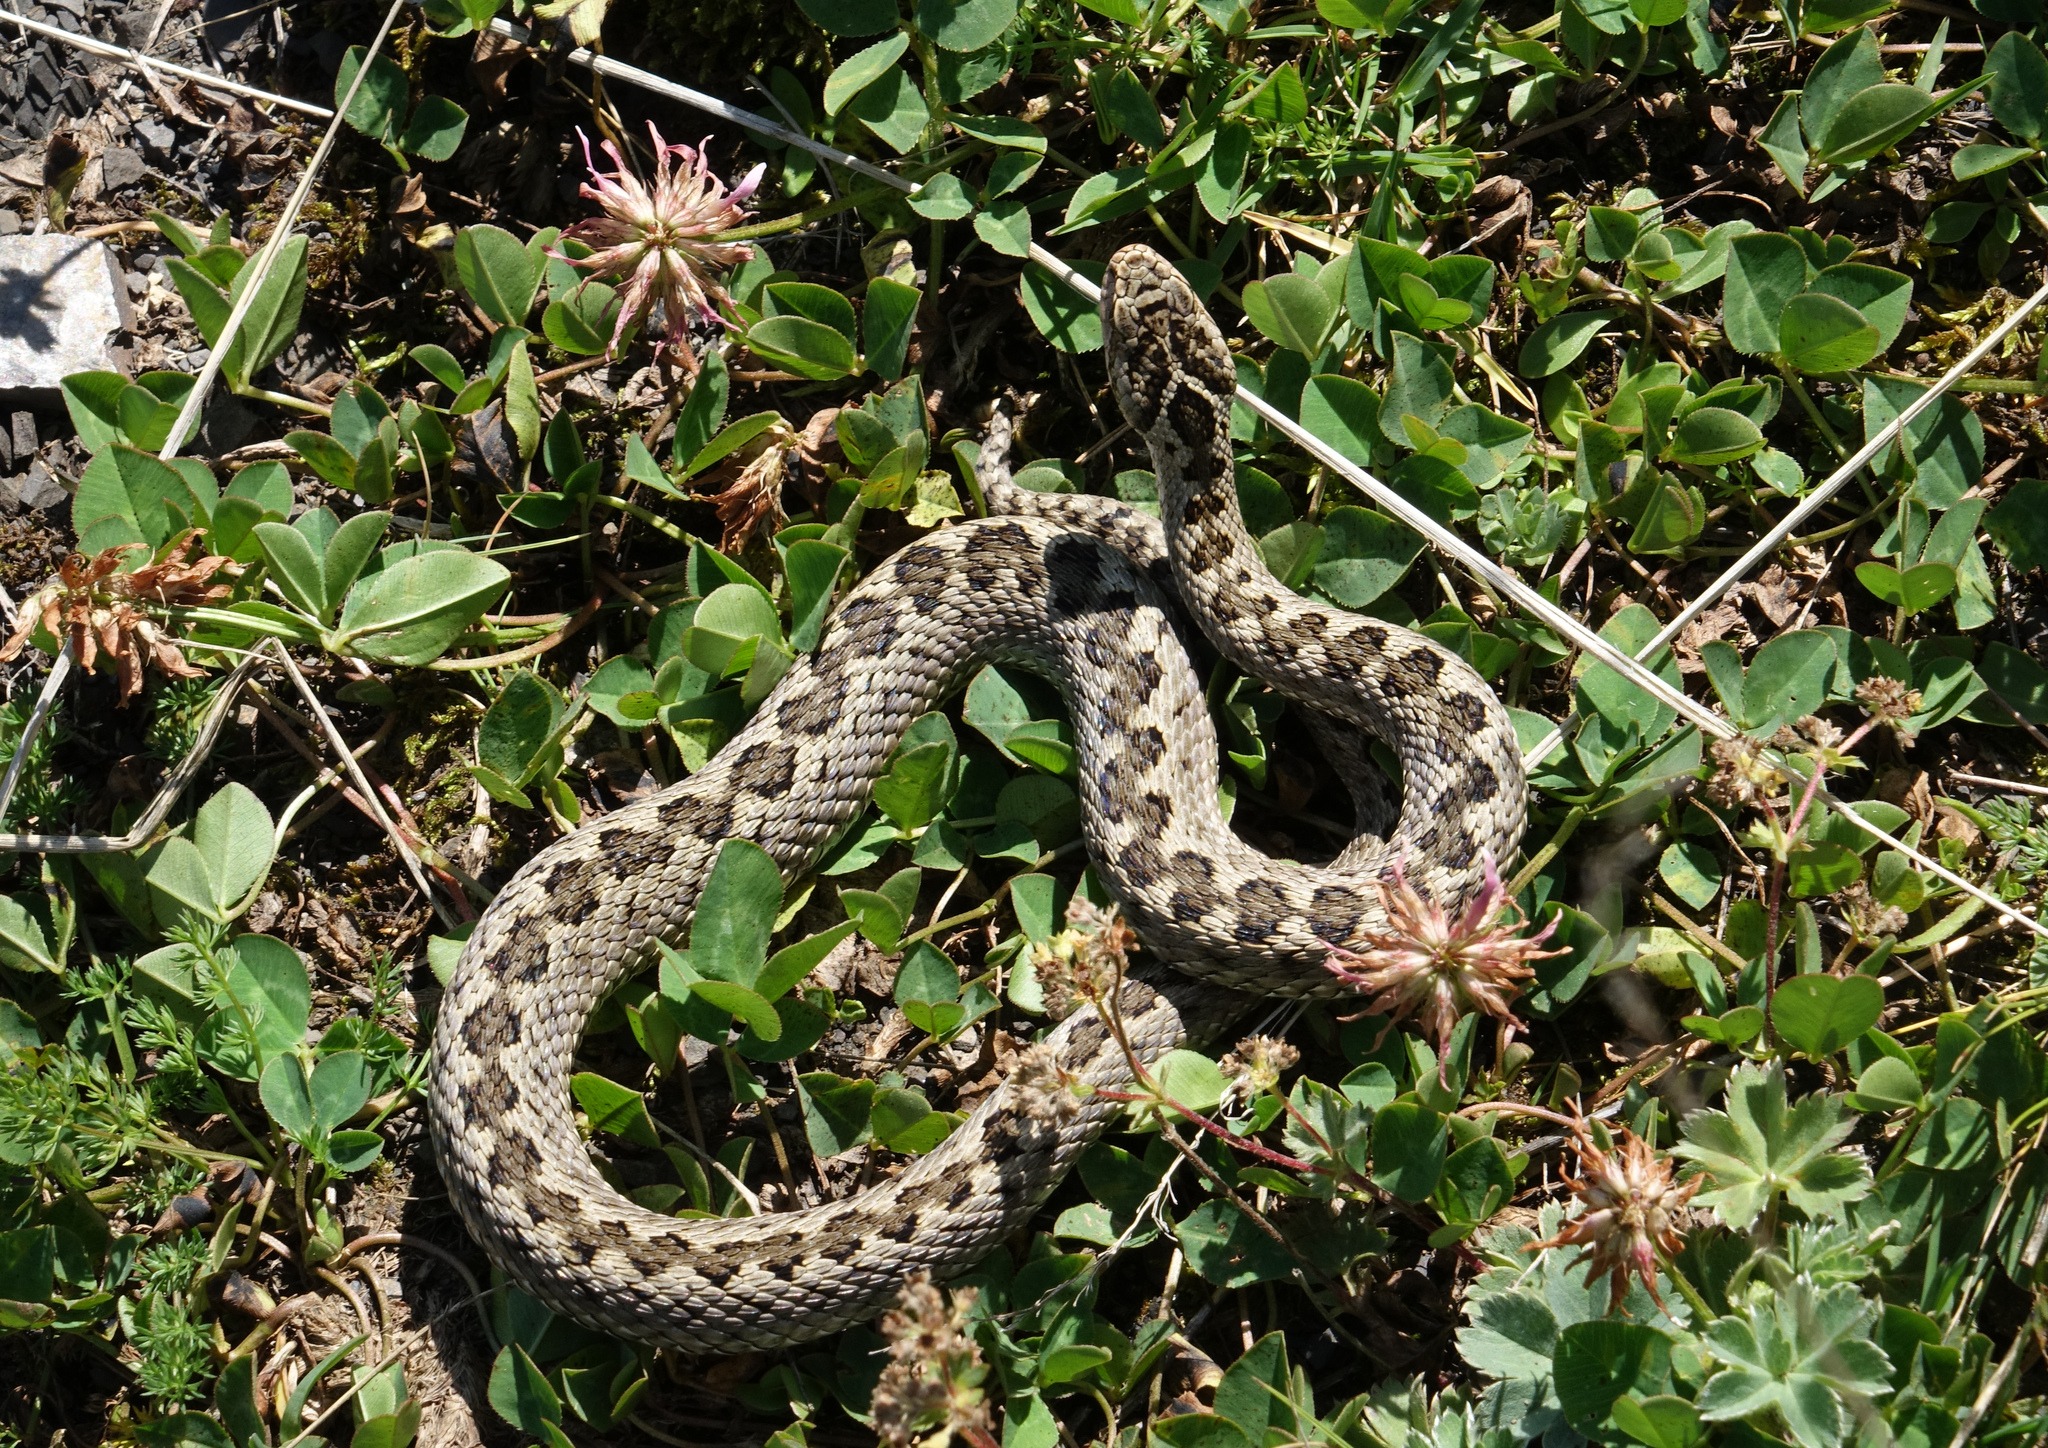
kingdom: Animalia
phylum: Chordata
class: Squamata
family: Viperidae
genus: Vipera
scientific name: Vipera lotievi
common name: Lotiev's viper
